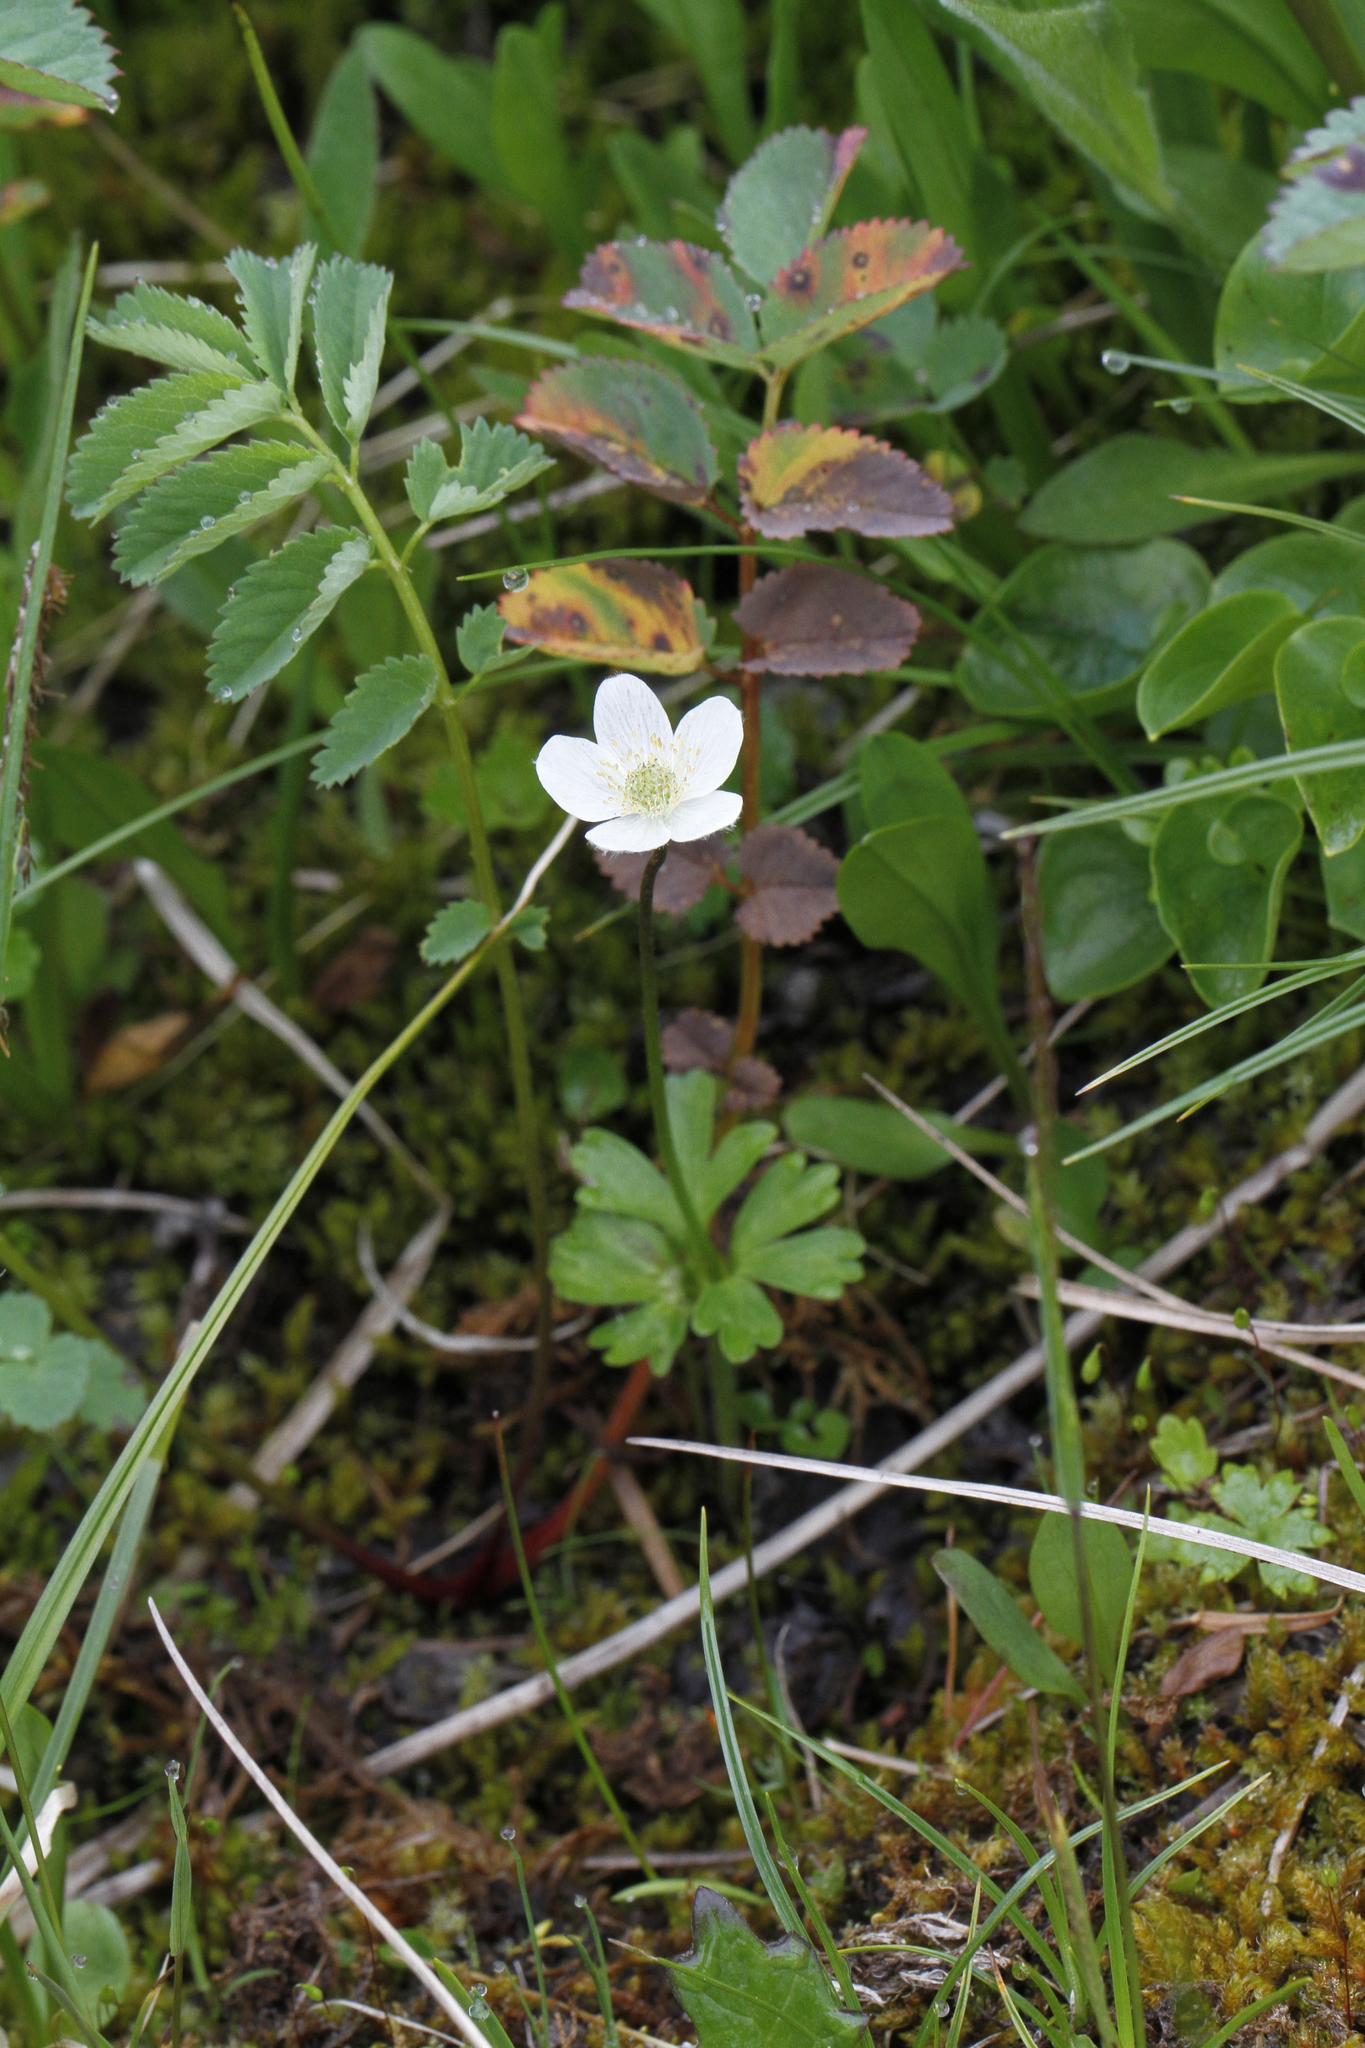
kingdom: Plantae
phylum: Tracheophyta
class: Magnoliopsida
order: Ranunculales
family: Ranunculaceae
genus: Anemone
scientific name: Anemone parviflora
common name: Northern anemone
